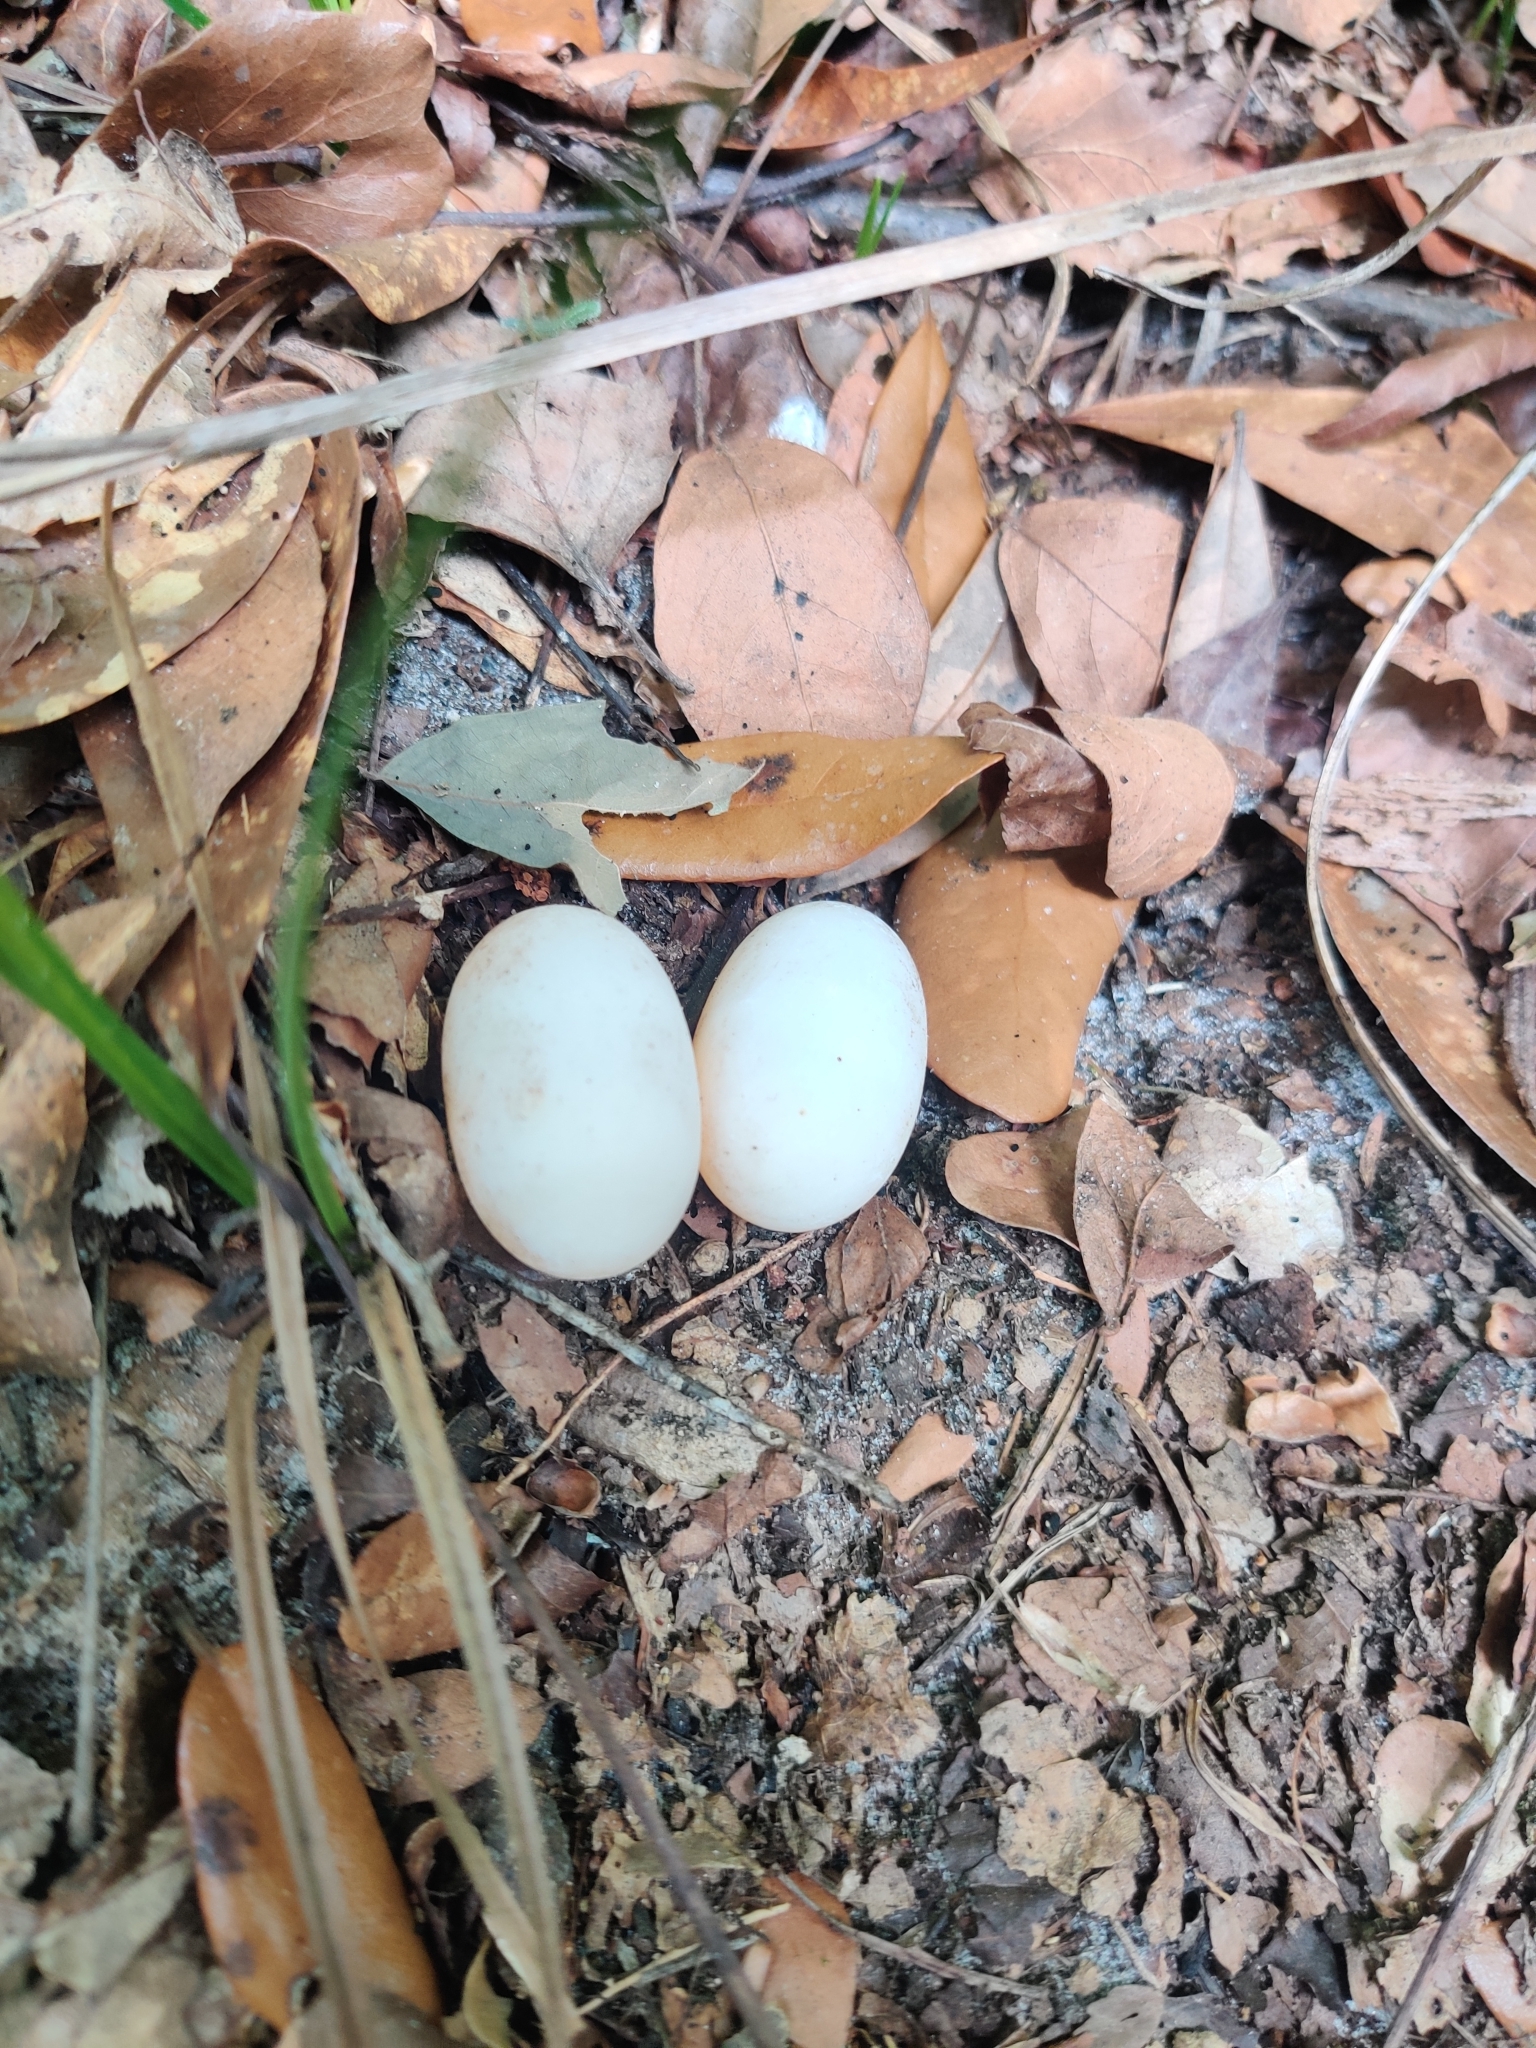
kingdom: Animalia
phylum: Chordata
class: Aves
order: Caprimulgiformes
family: Caprimulgidae
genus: Antrostomus
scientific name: Antrostomus carolinensis
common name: Chuck-will's-widow
